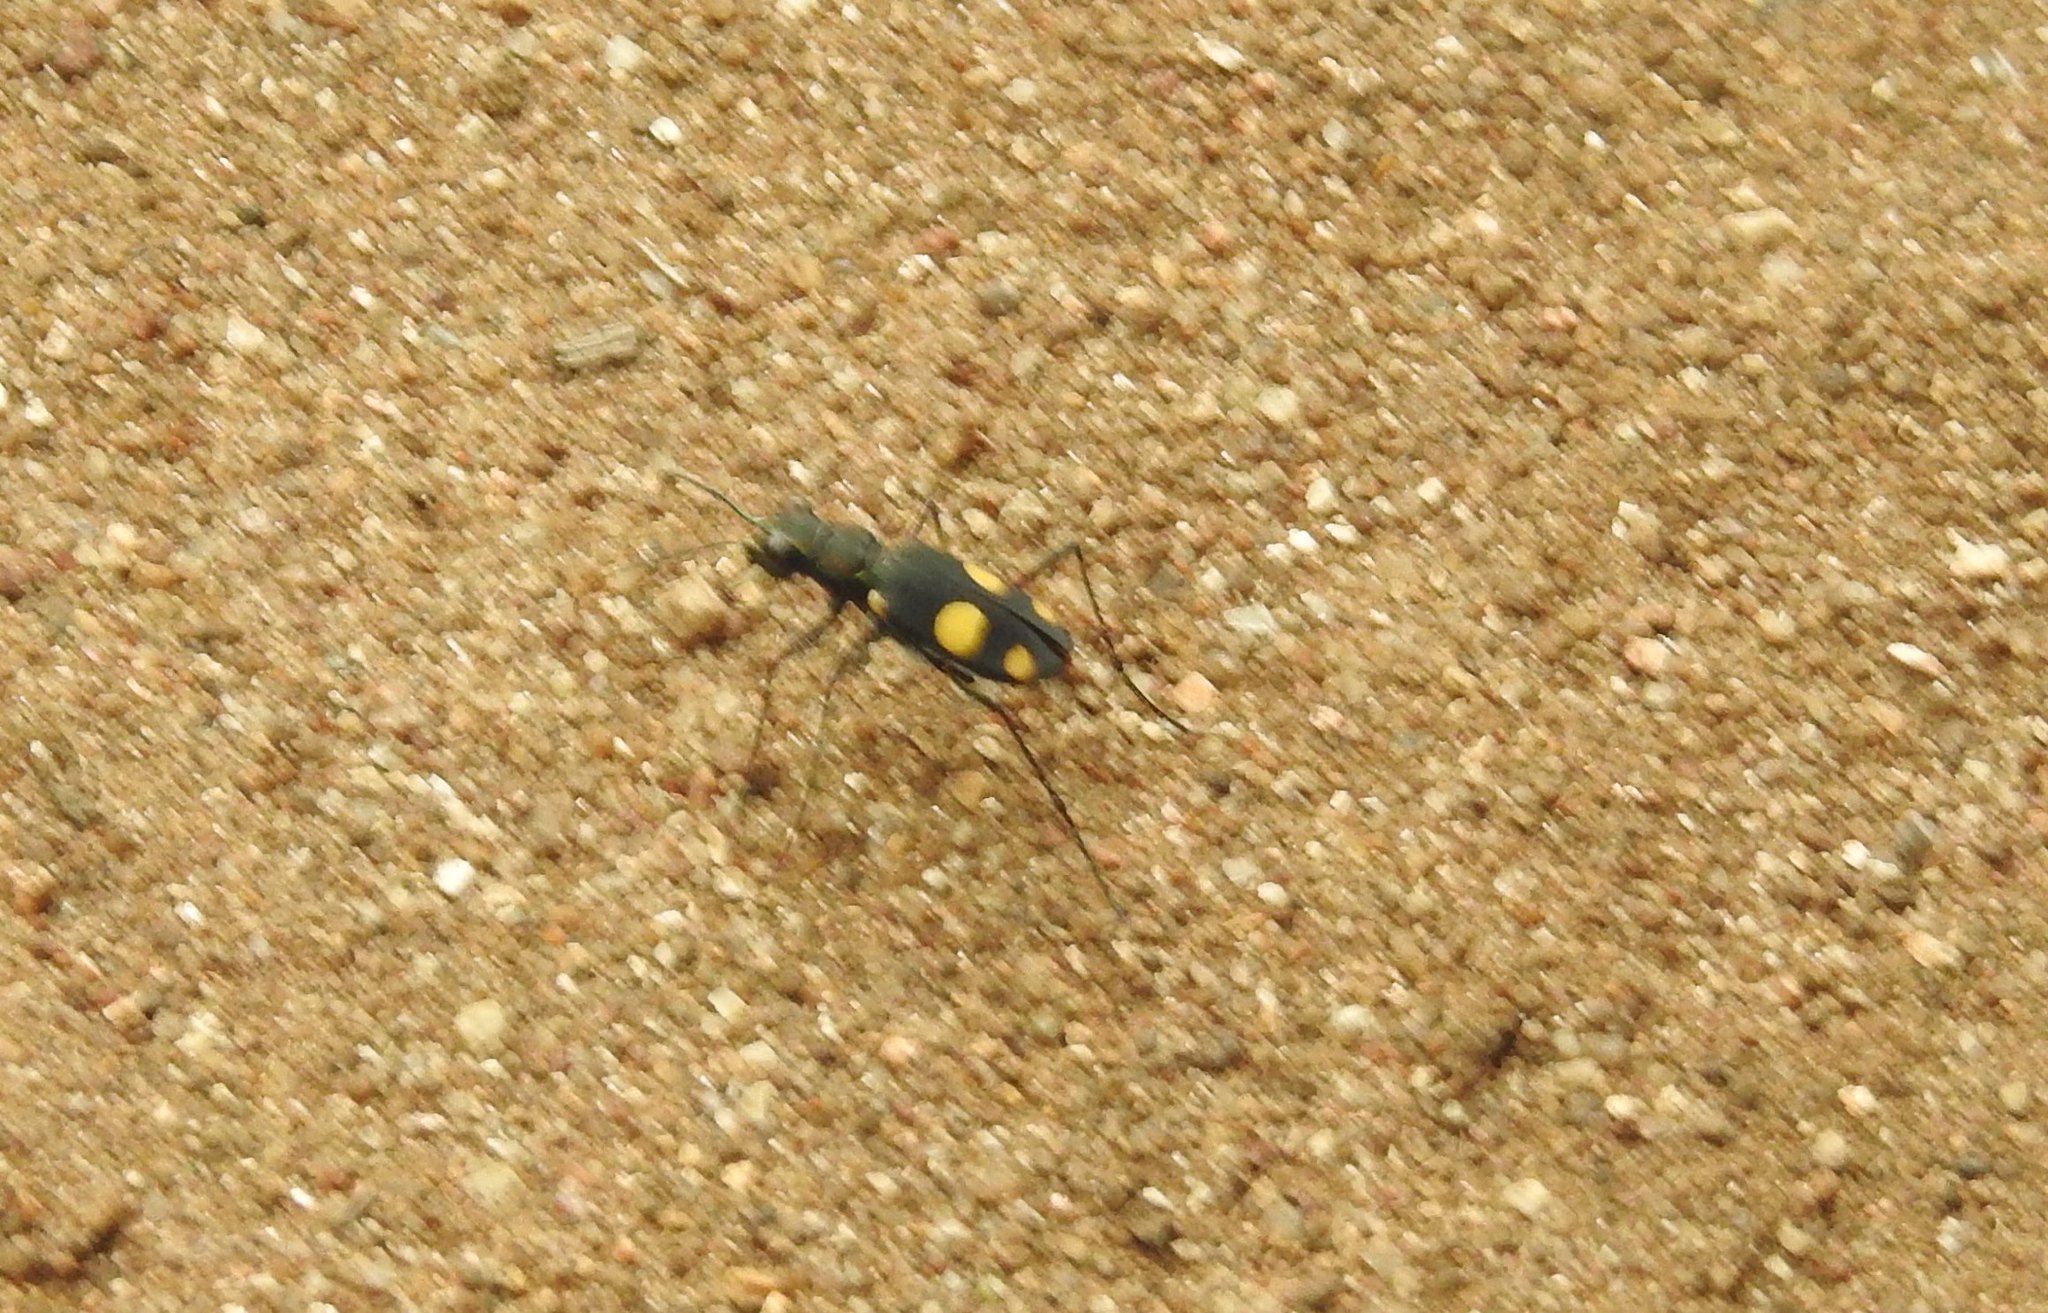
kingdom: Animalia
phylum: Arthropoda
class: Insecta
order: Coleoptera
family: Carabidae
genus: Cicindela
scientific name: Cicindela bicolor
